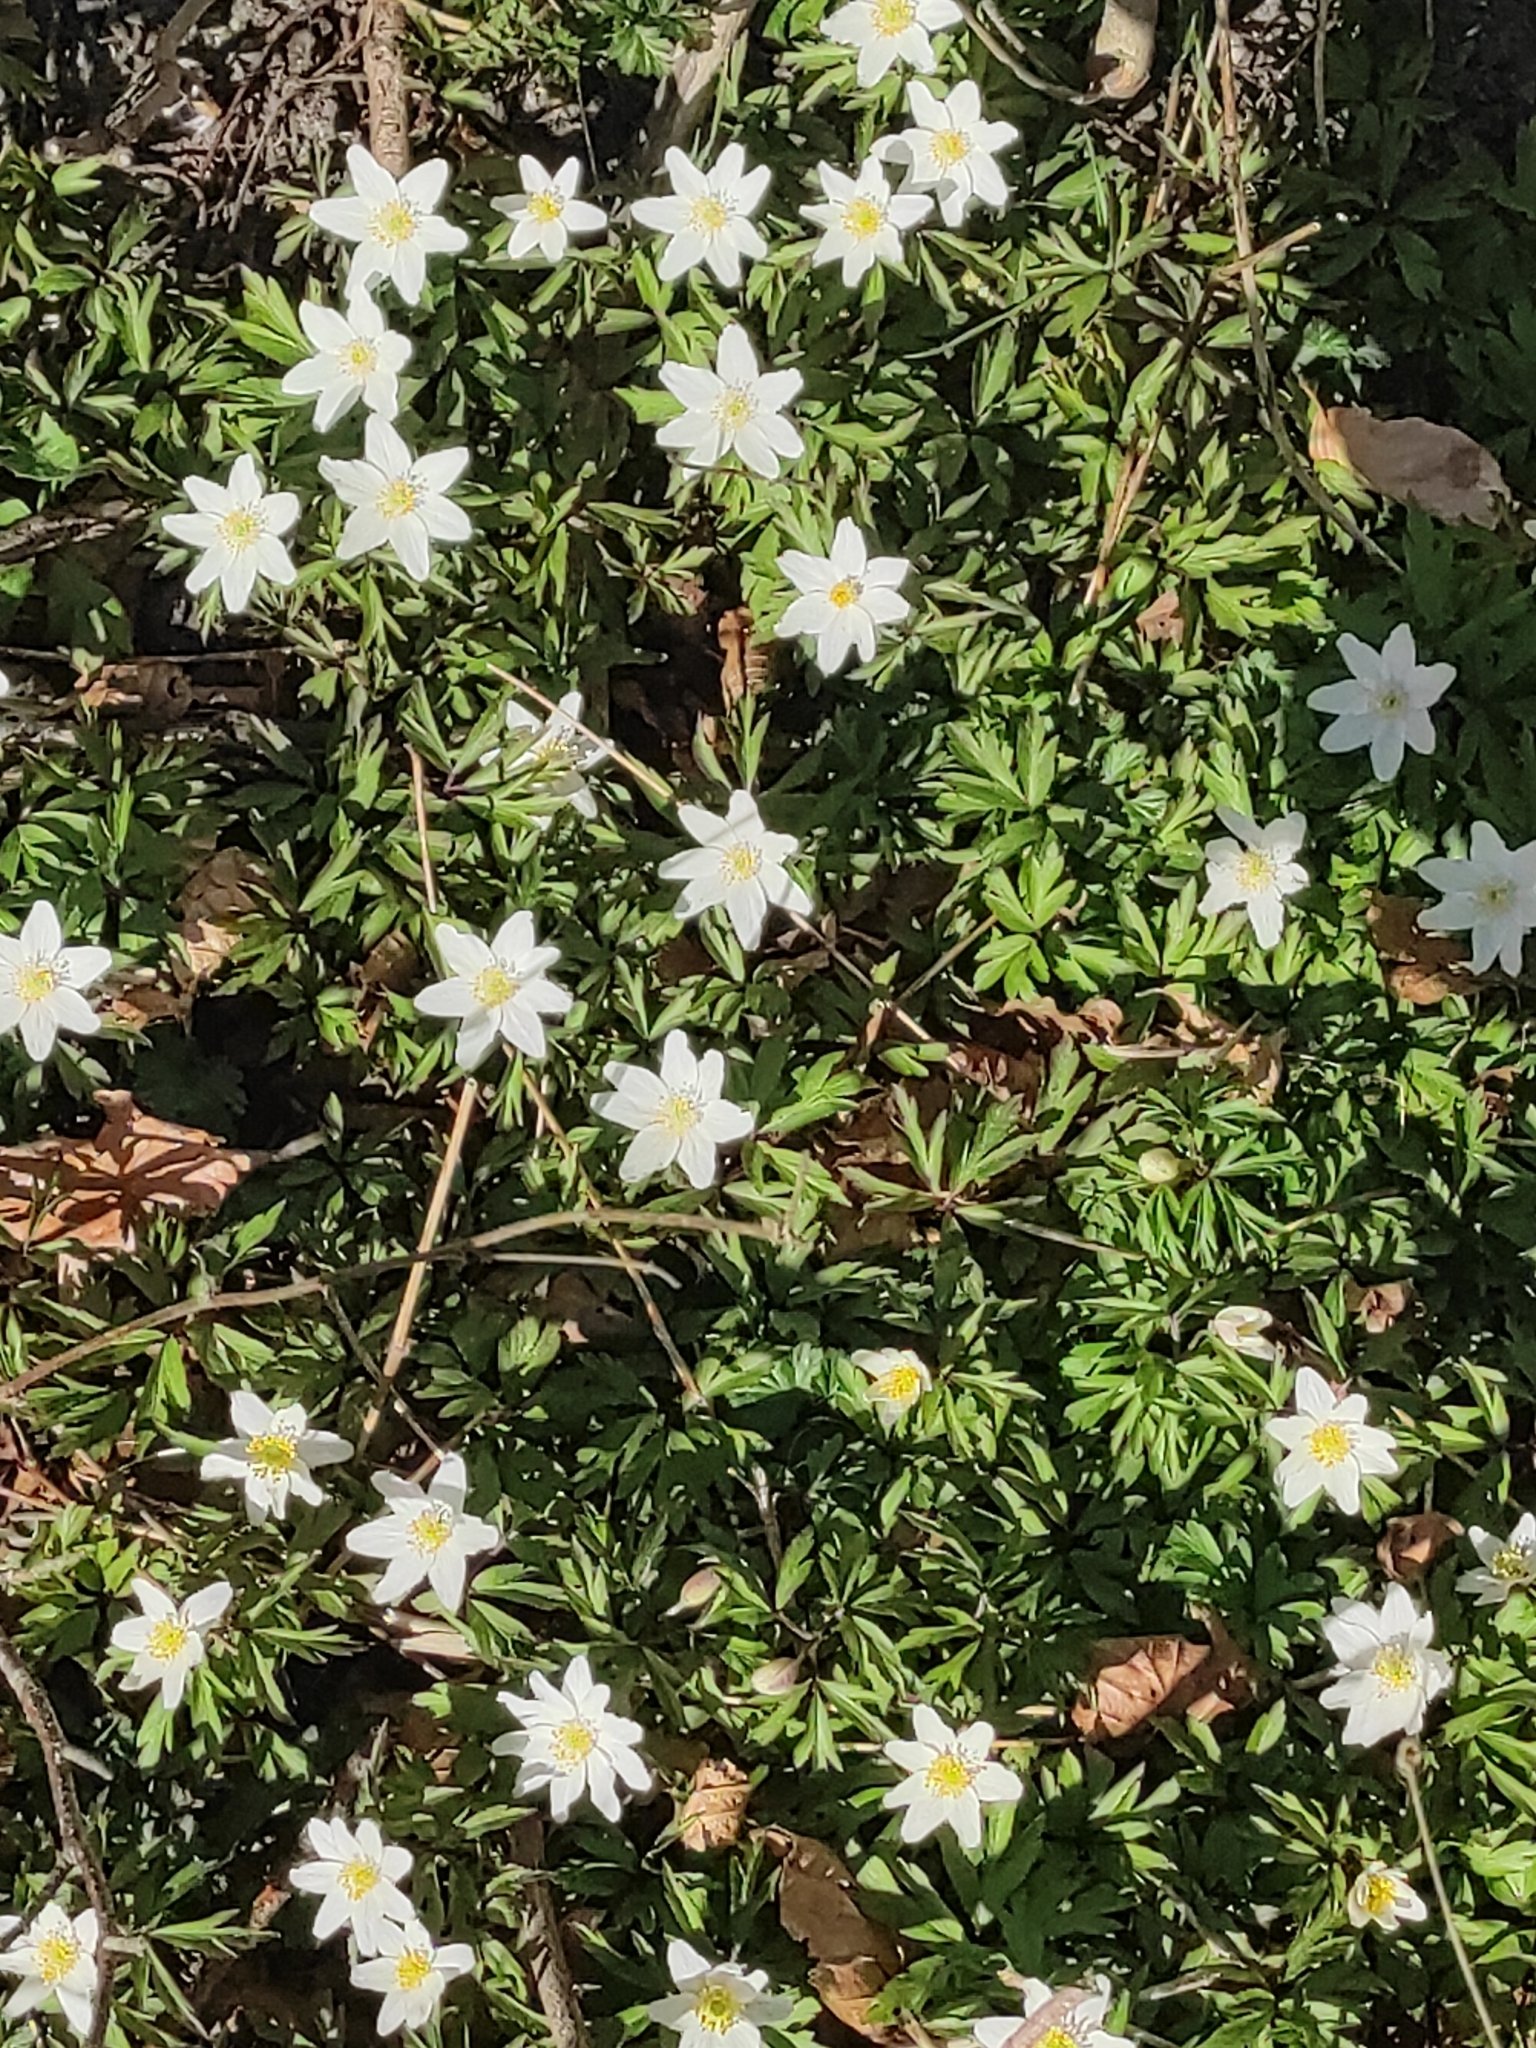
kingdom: Plantae
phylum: Tracheophyta
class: Magnoliopsida
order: Ranunculales
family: Ranunculaceae
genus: Anemone
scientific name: Anemone nemorosa
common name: Wood anemone
